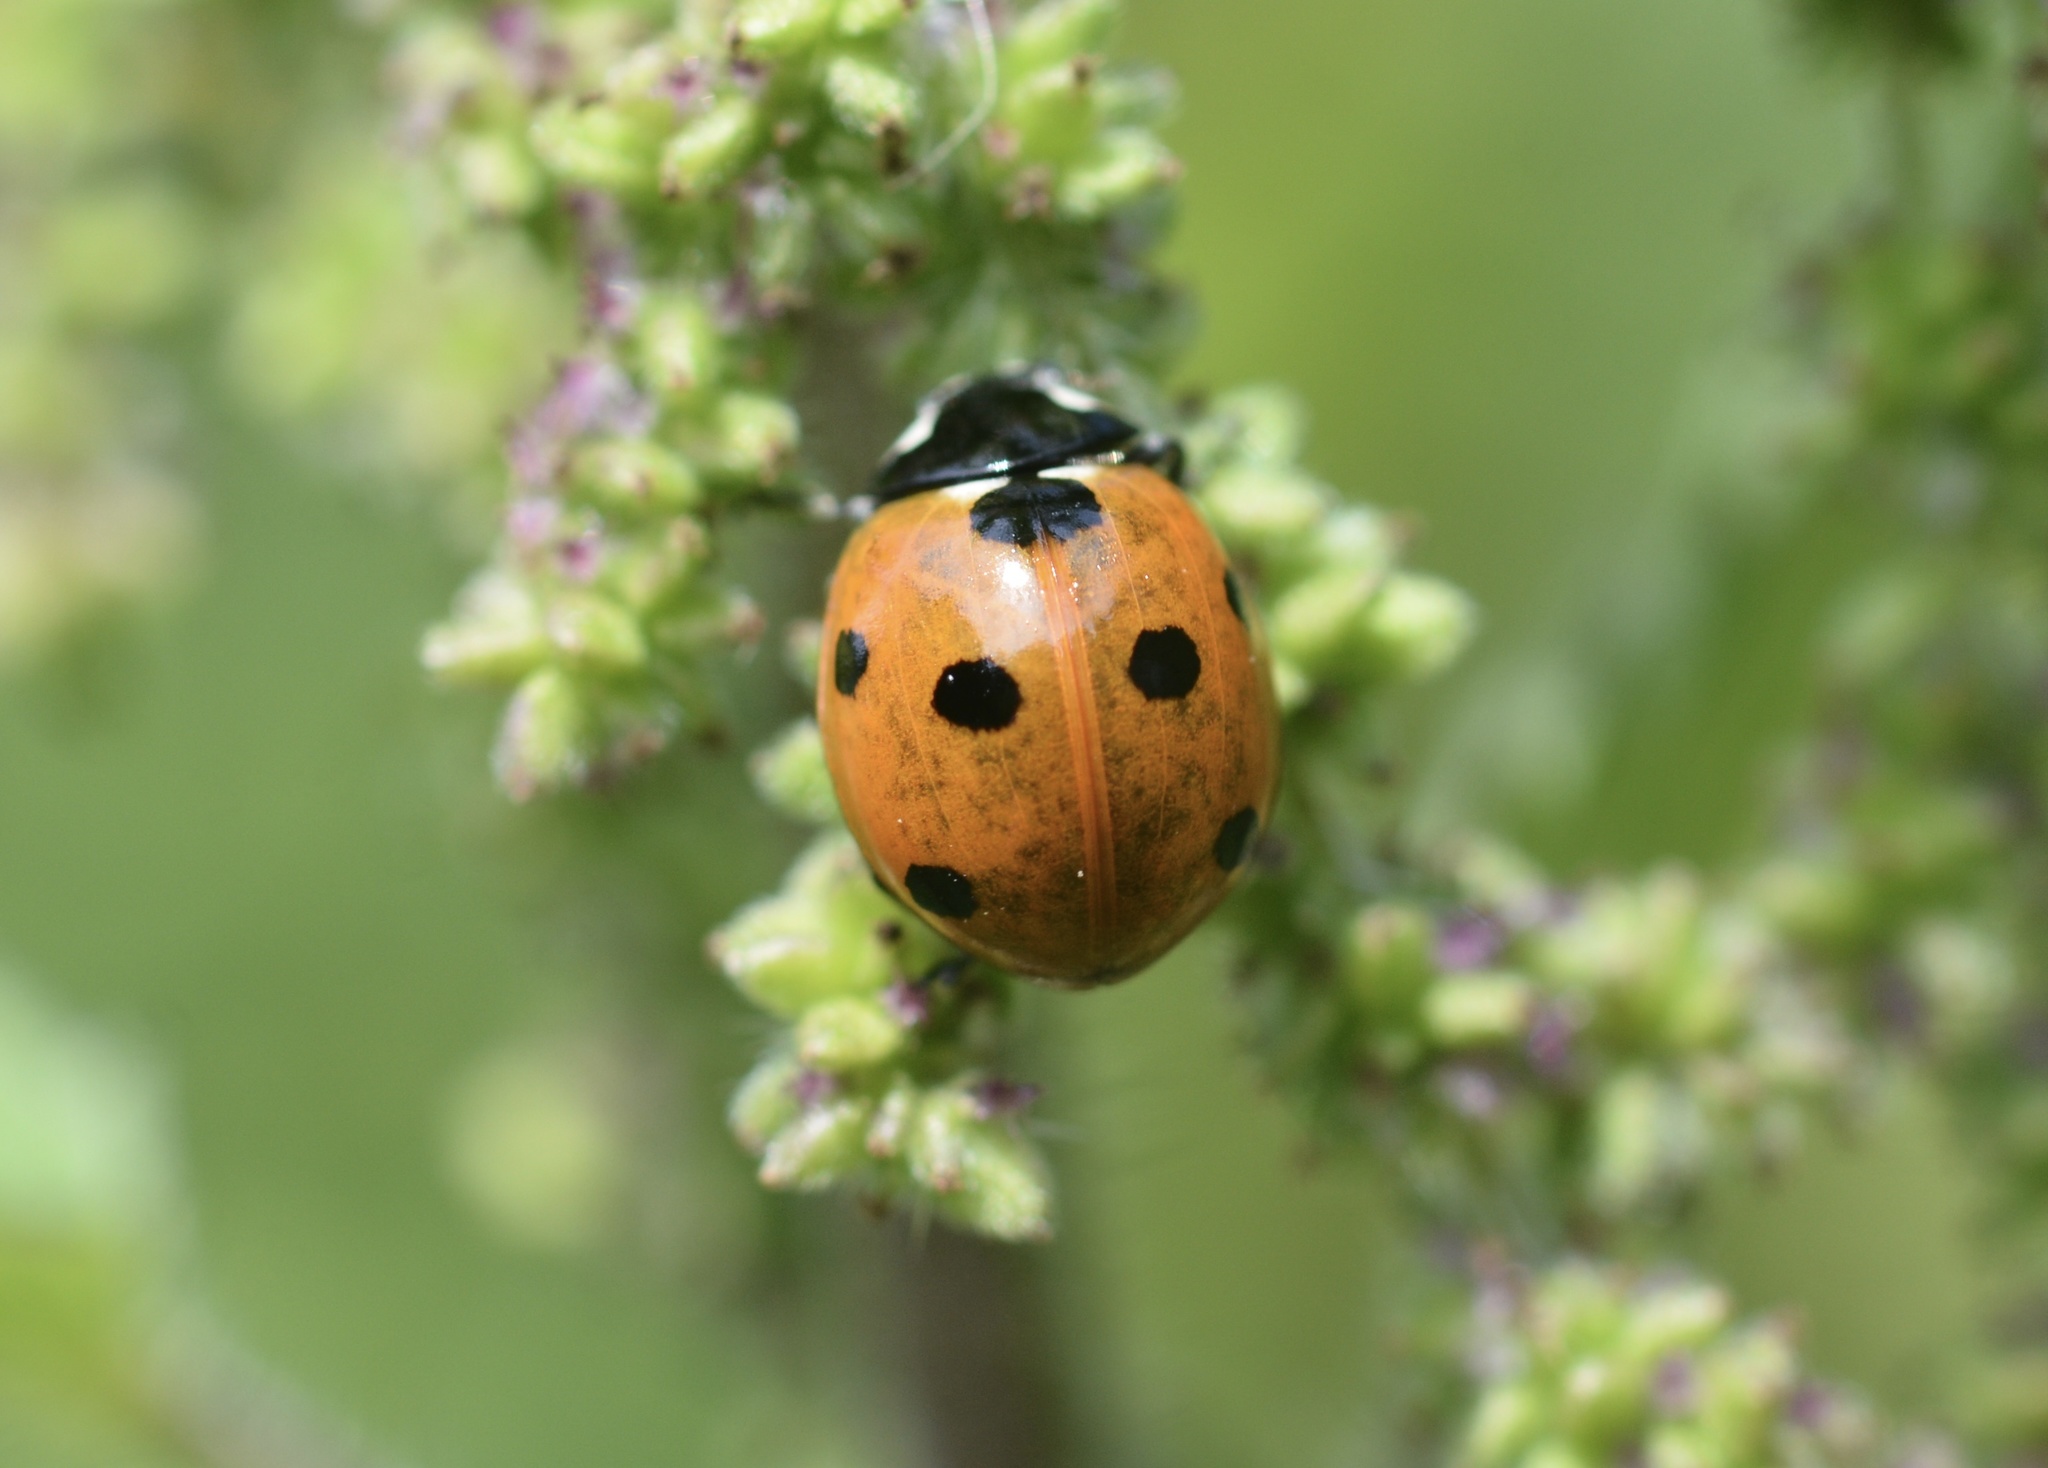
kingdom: Animalia
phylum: Arthropoda
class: Insecta
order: Coleoptera
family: Coccinellidae
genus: Coccinella
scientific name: Coccinella septempunctata
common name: Sevenspotted lady beetle
